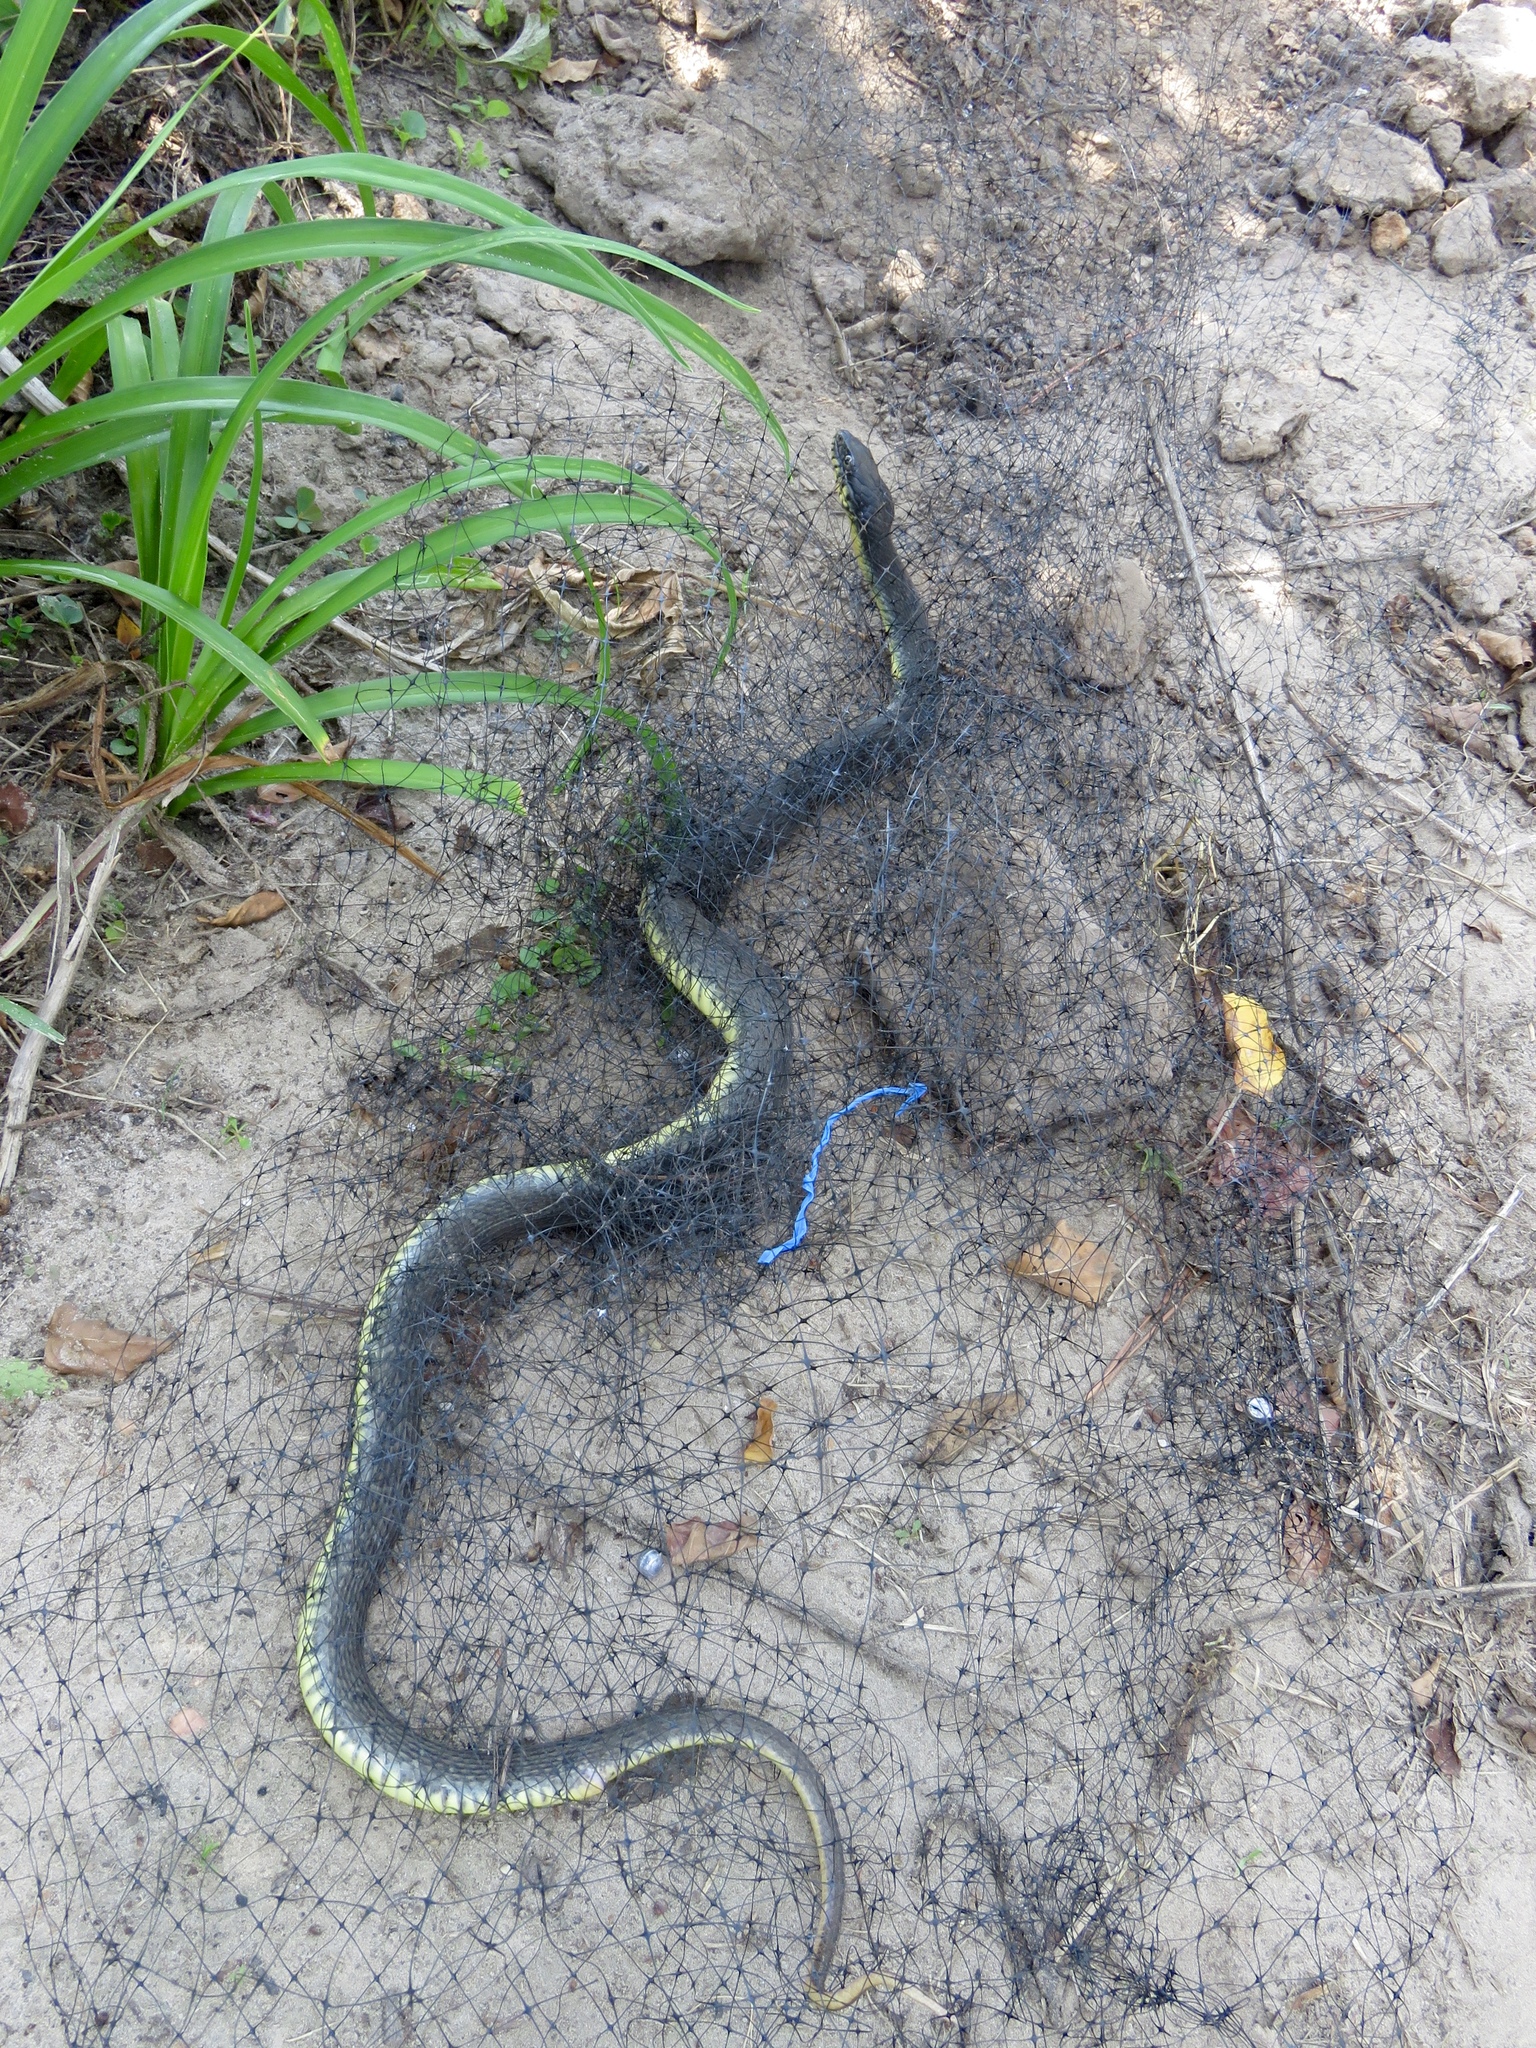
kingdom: Animalia
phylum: Chordata
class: Squamata
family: Colubridae
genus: Nerodia
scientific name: Nerodia erythrogaster
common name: Plainbelly water snake
